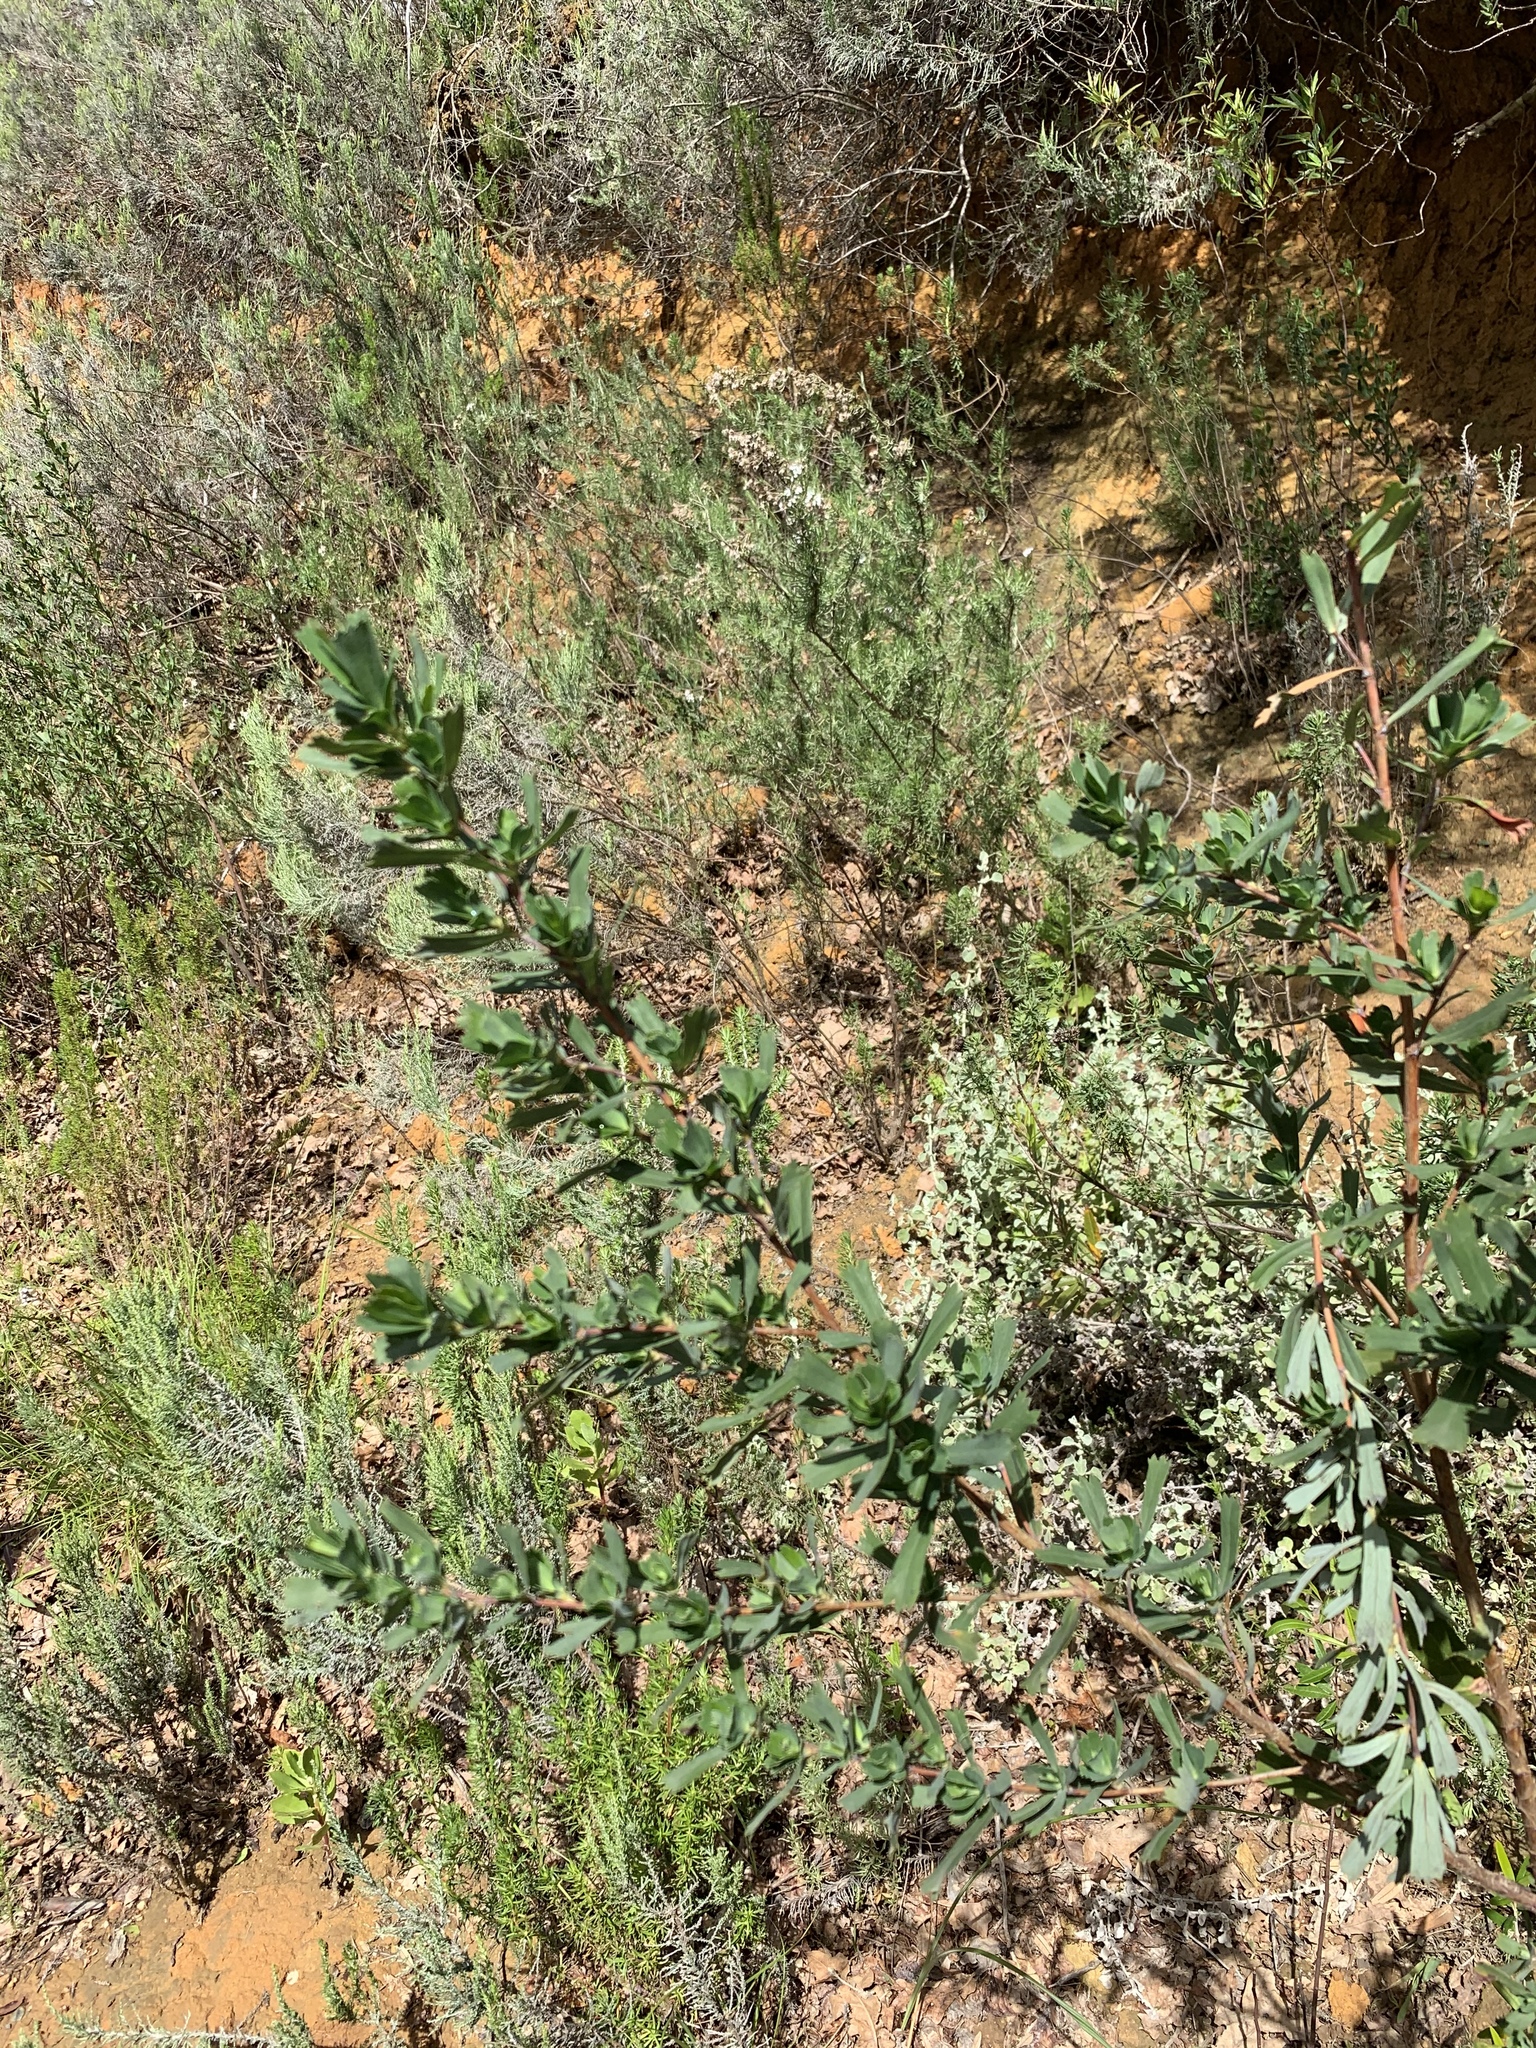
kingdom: Plantae
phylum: Tracheophyta
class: Magnoliopsida
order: Rosales
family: Rosaceae
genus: Cliffortia
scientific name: Cliffortia cuneata
